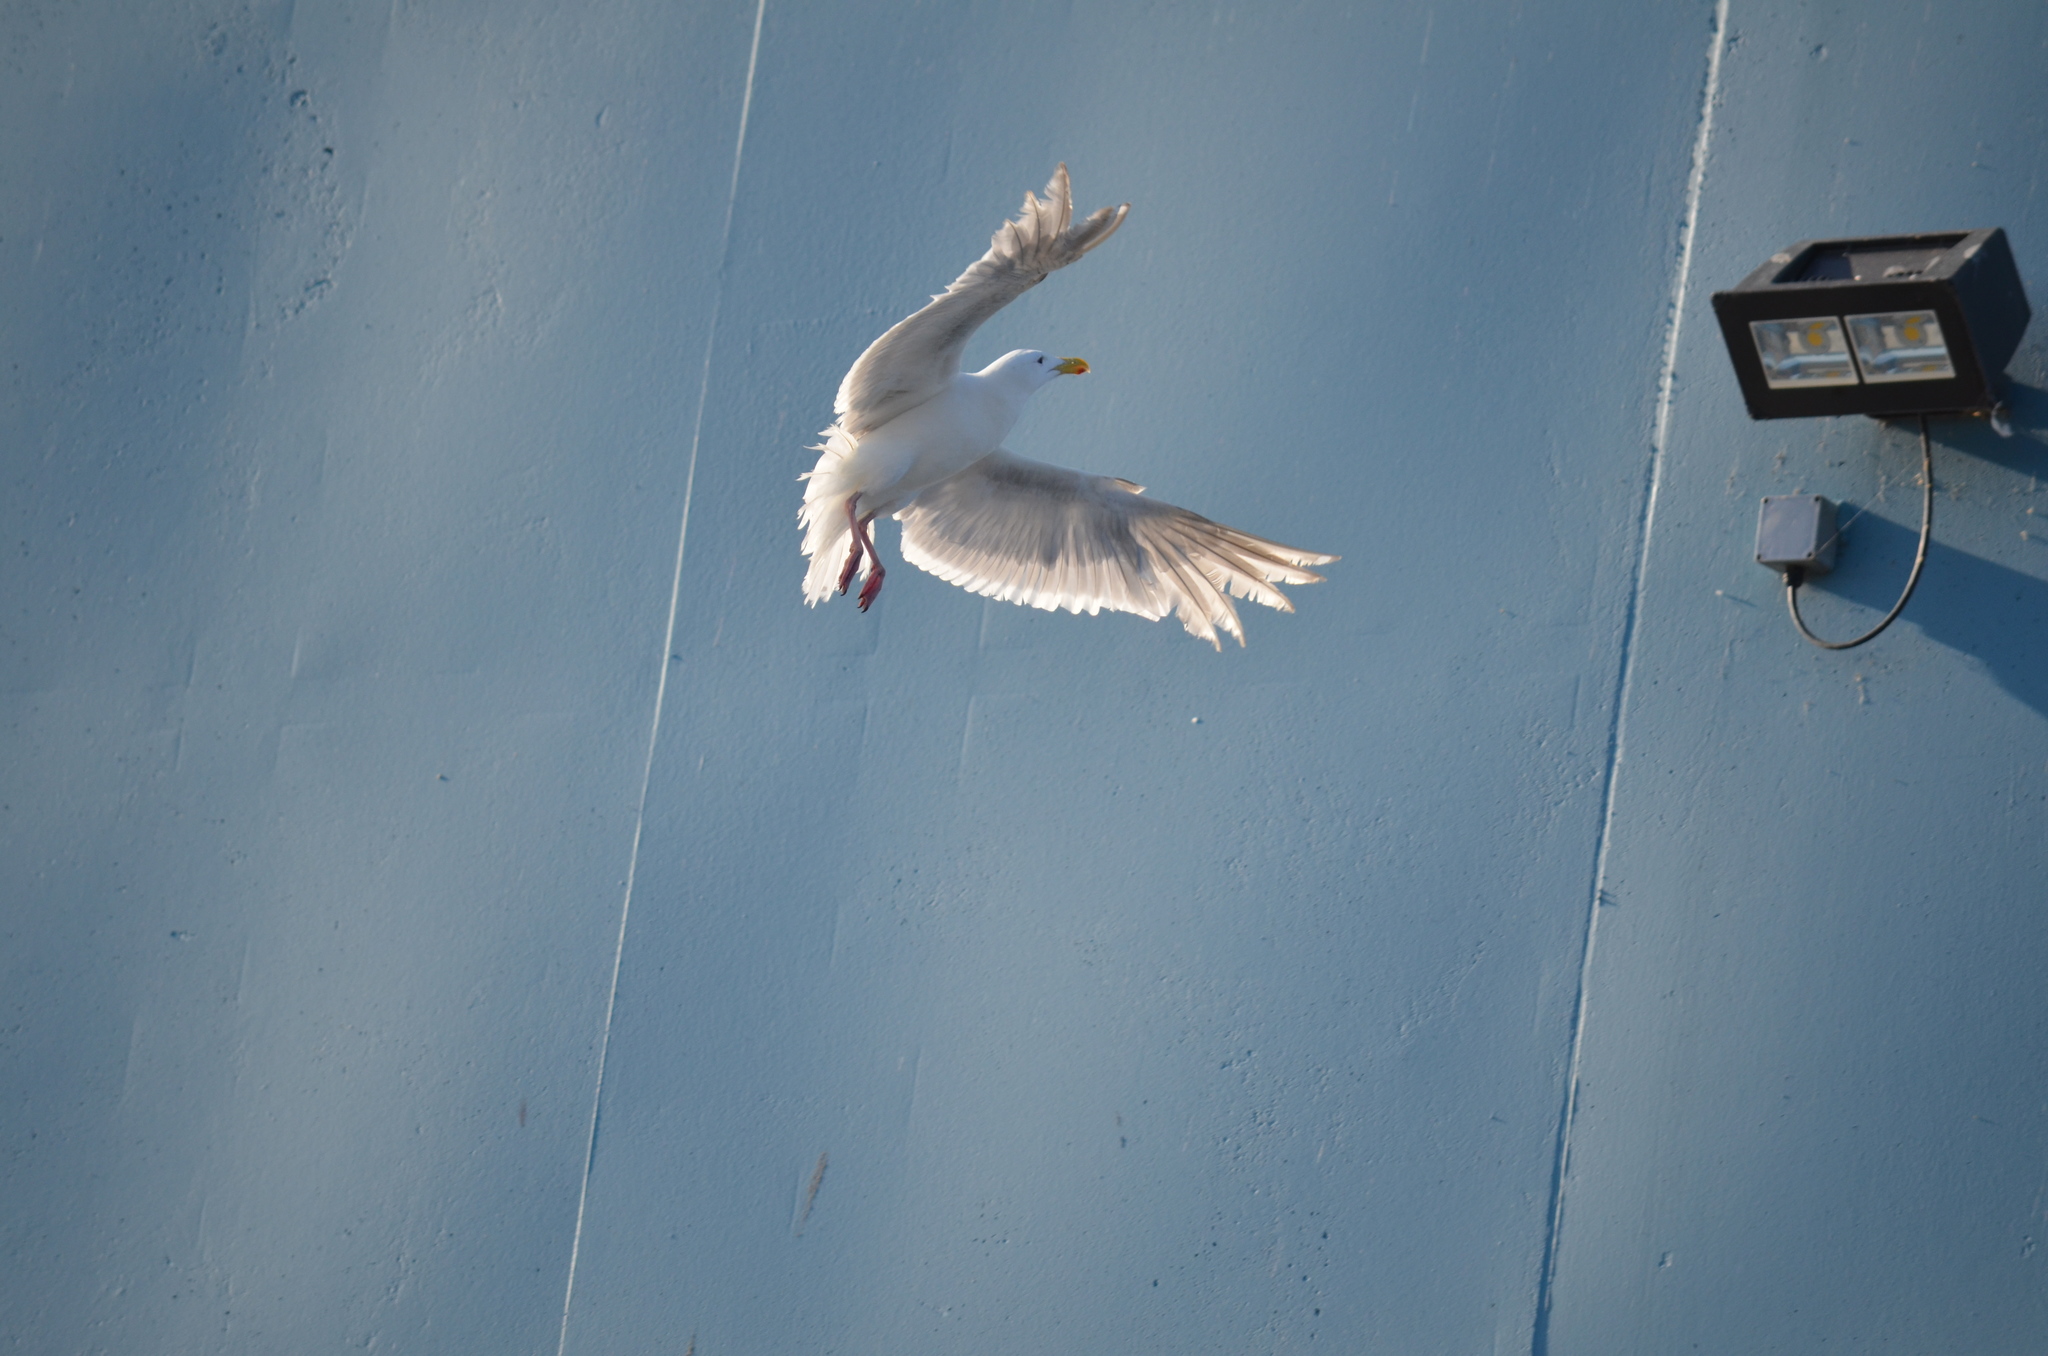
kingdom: Animalia
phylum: Chordata
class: Aves
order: Charadriiformes
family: Laridae
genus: Larus
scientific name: Larus glaucescens
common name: Glaucous-winged gull
